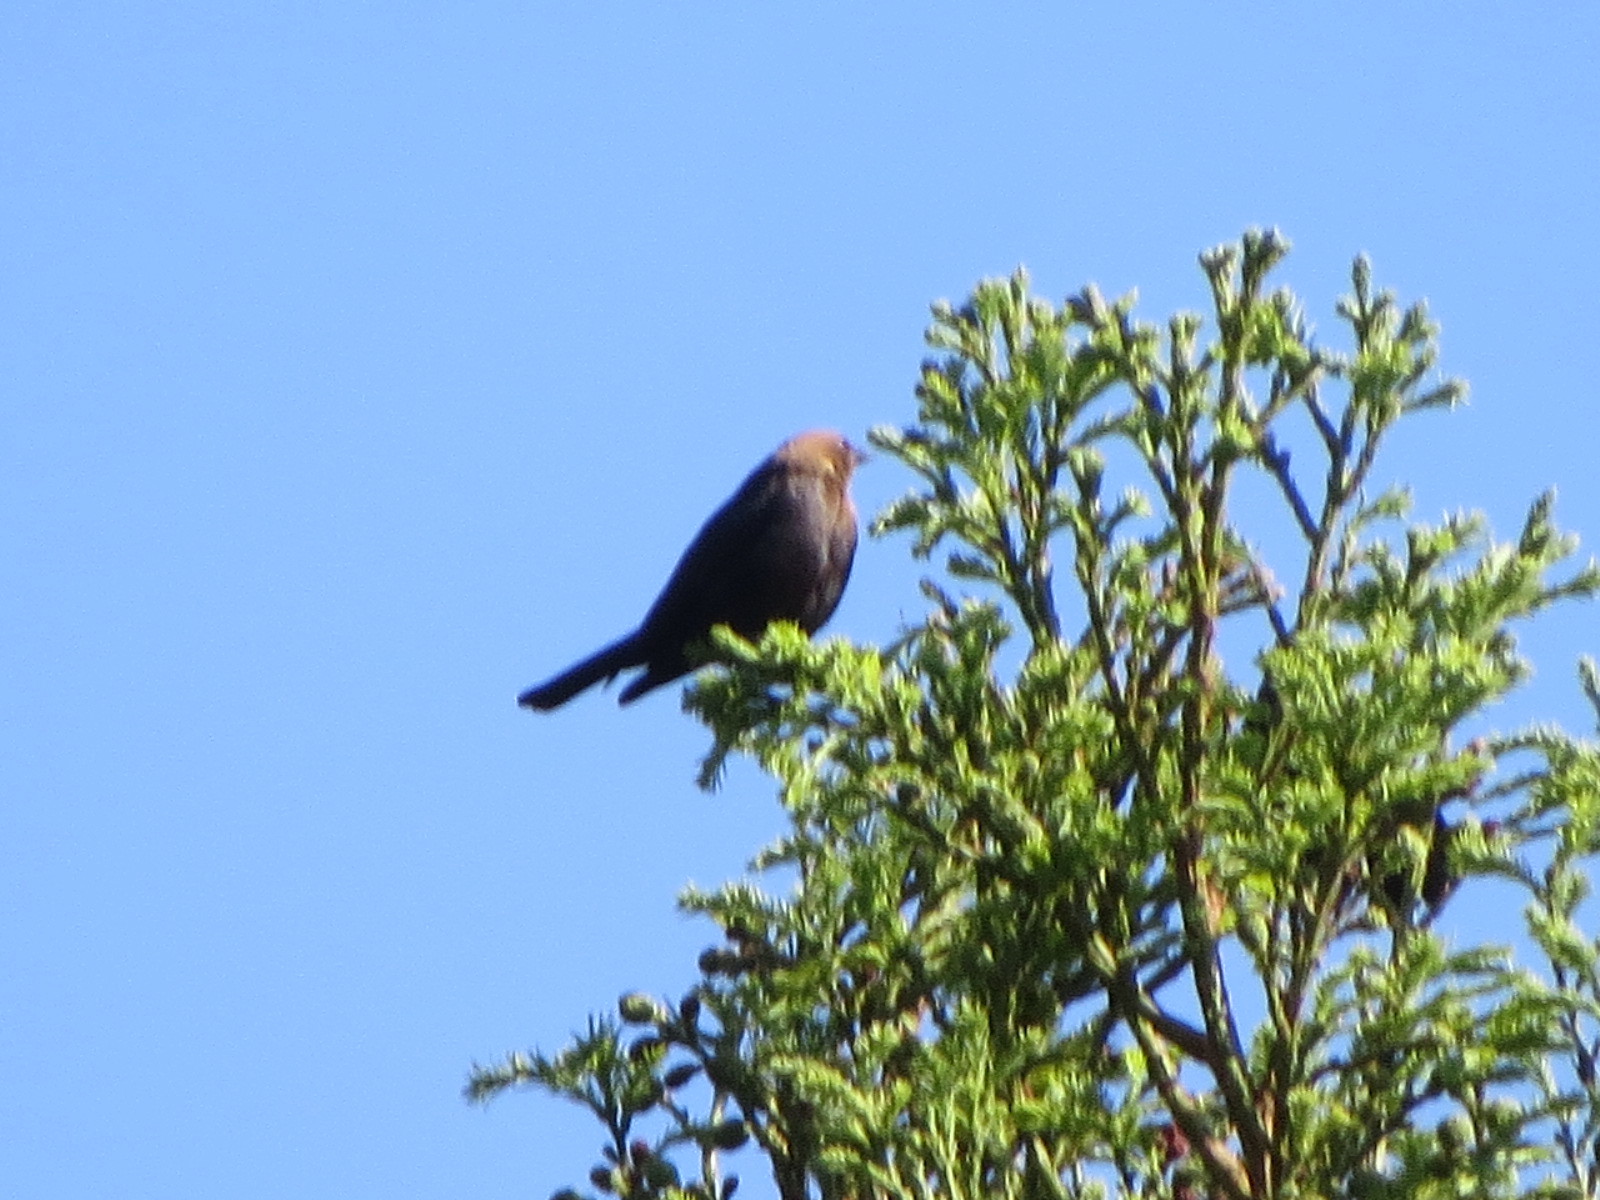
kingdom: Animalia
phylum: Chordata
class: Aves
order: Passeriformes
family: Icteridae
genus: Molothrus
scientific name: Molothrus ater
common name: Brown-headed cowbird
